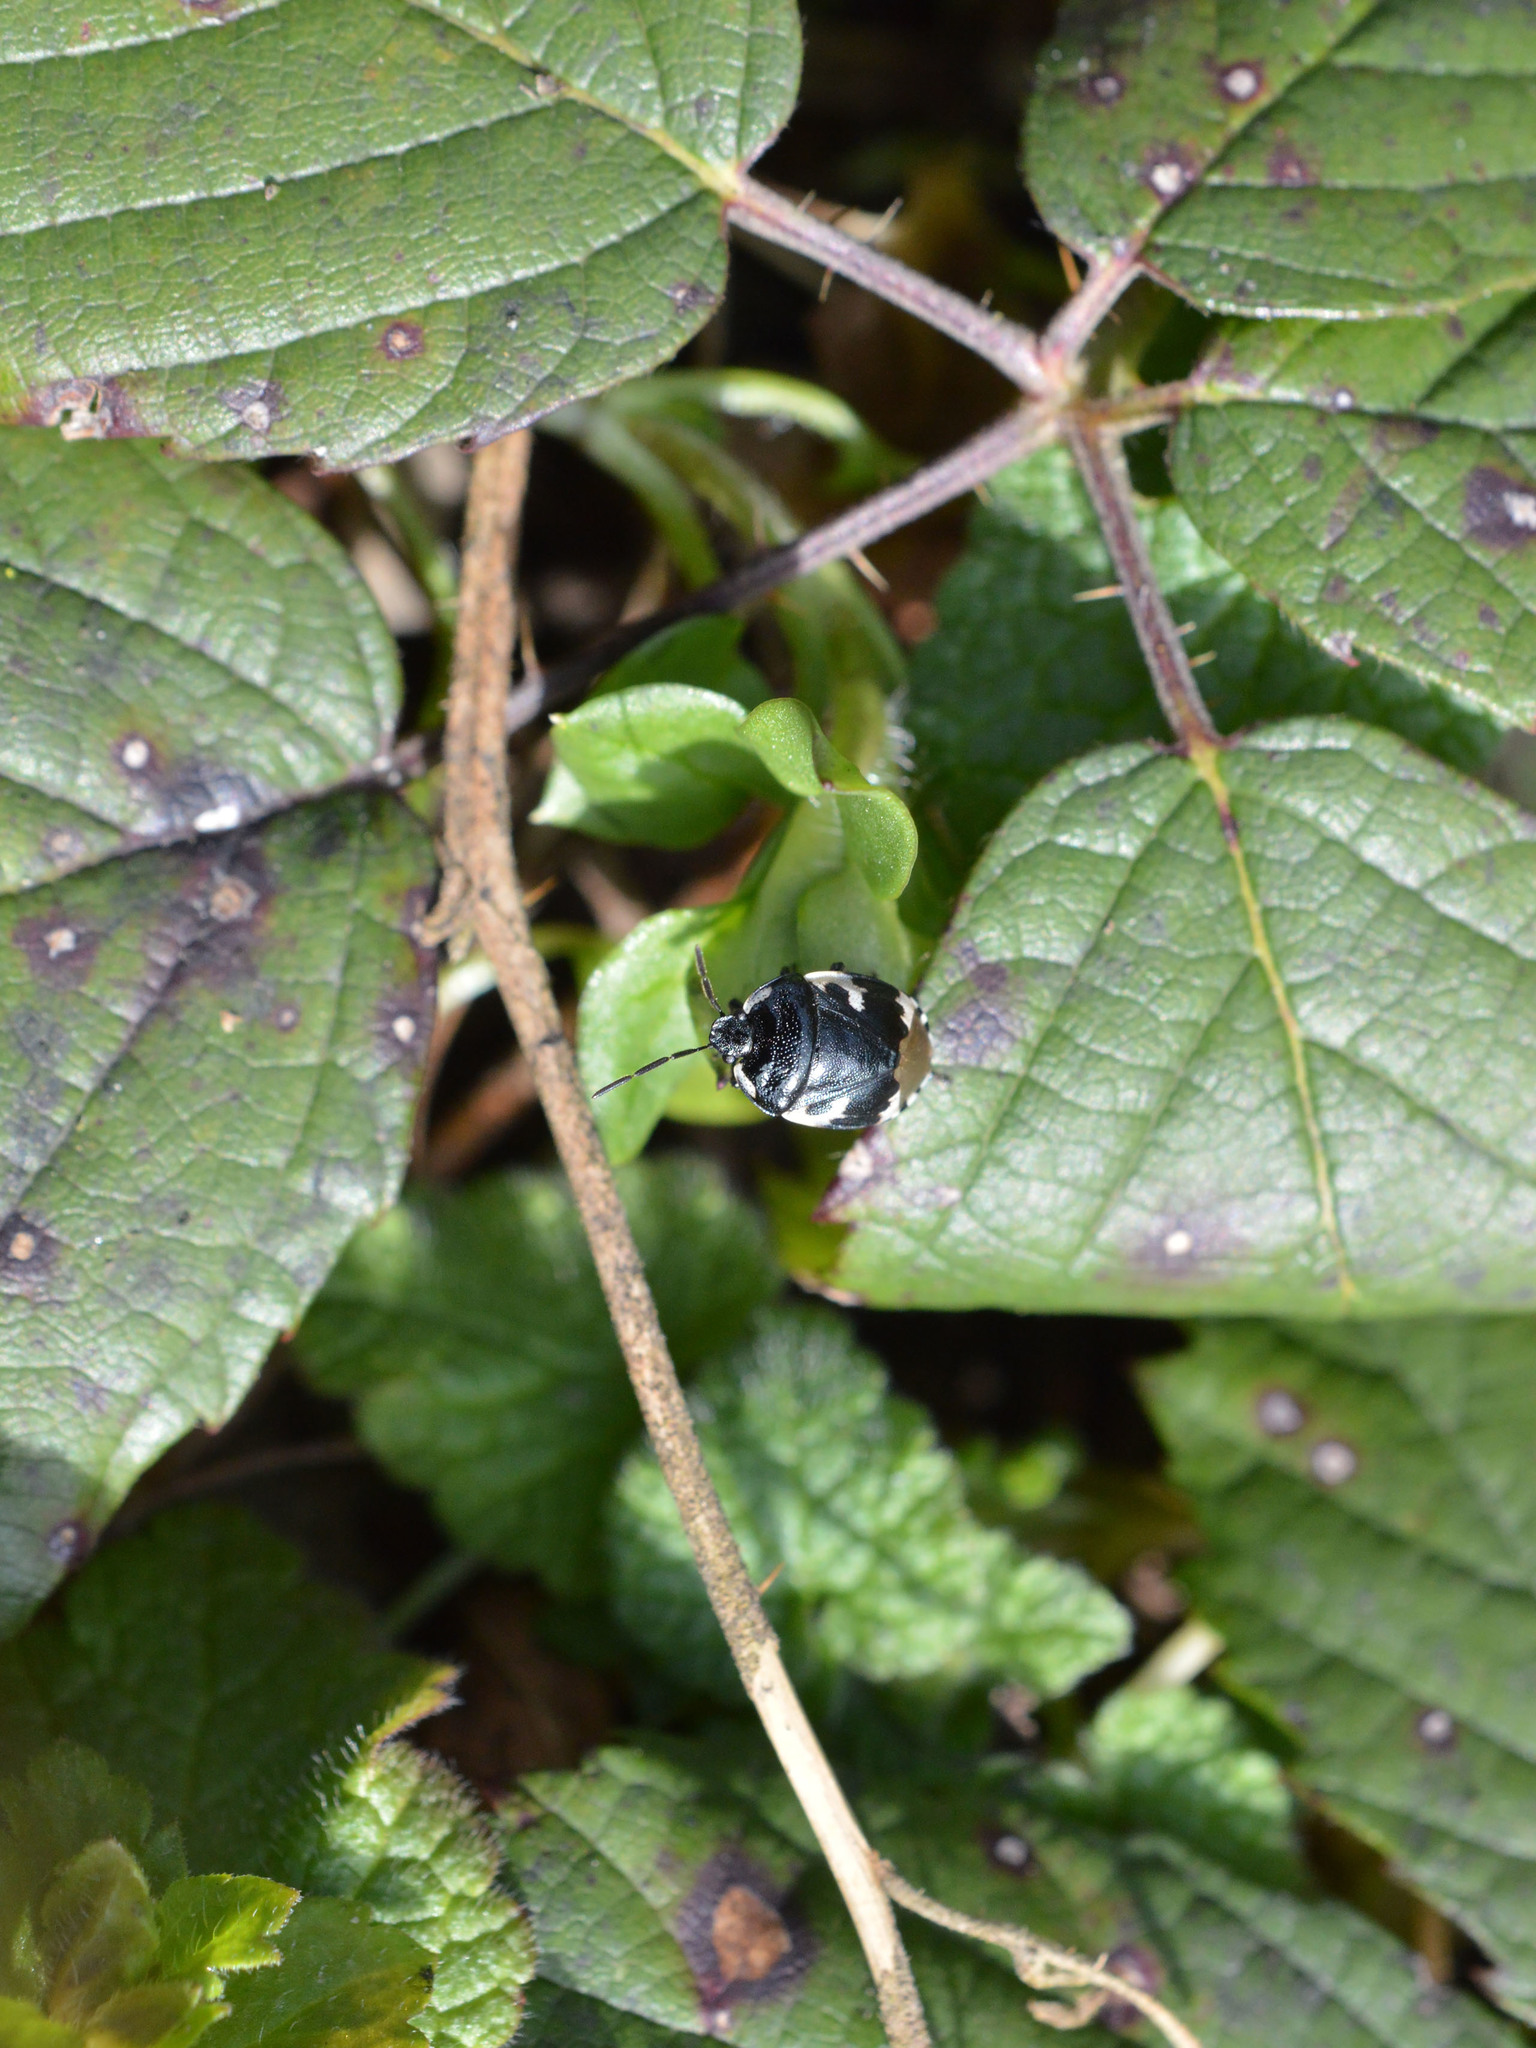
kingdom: Animalia
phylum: Arthropoda
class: Insecta
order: Hemiptera
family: Cydnidae
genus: Tritomegas
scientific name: Tritomegas bicolor
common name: Pied shieldbug
